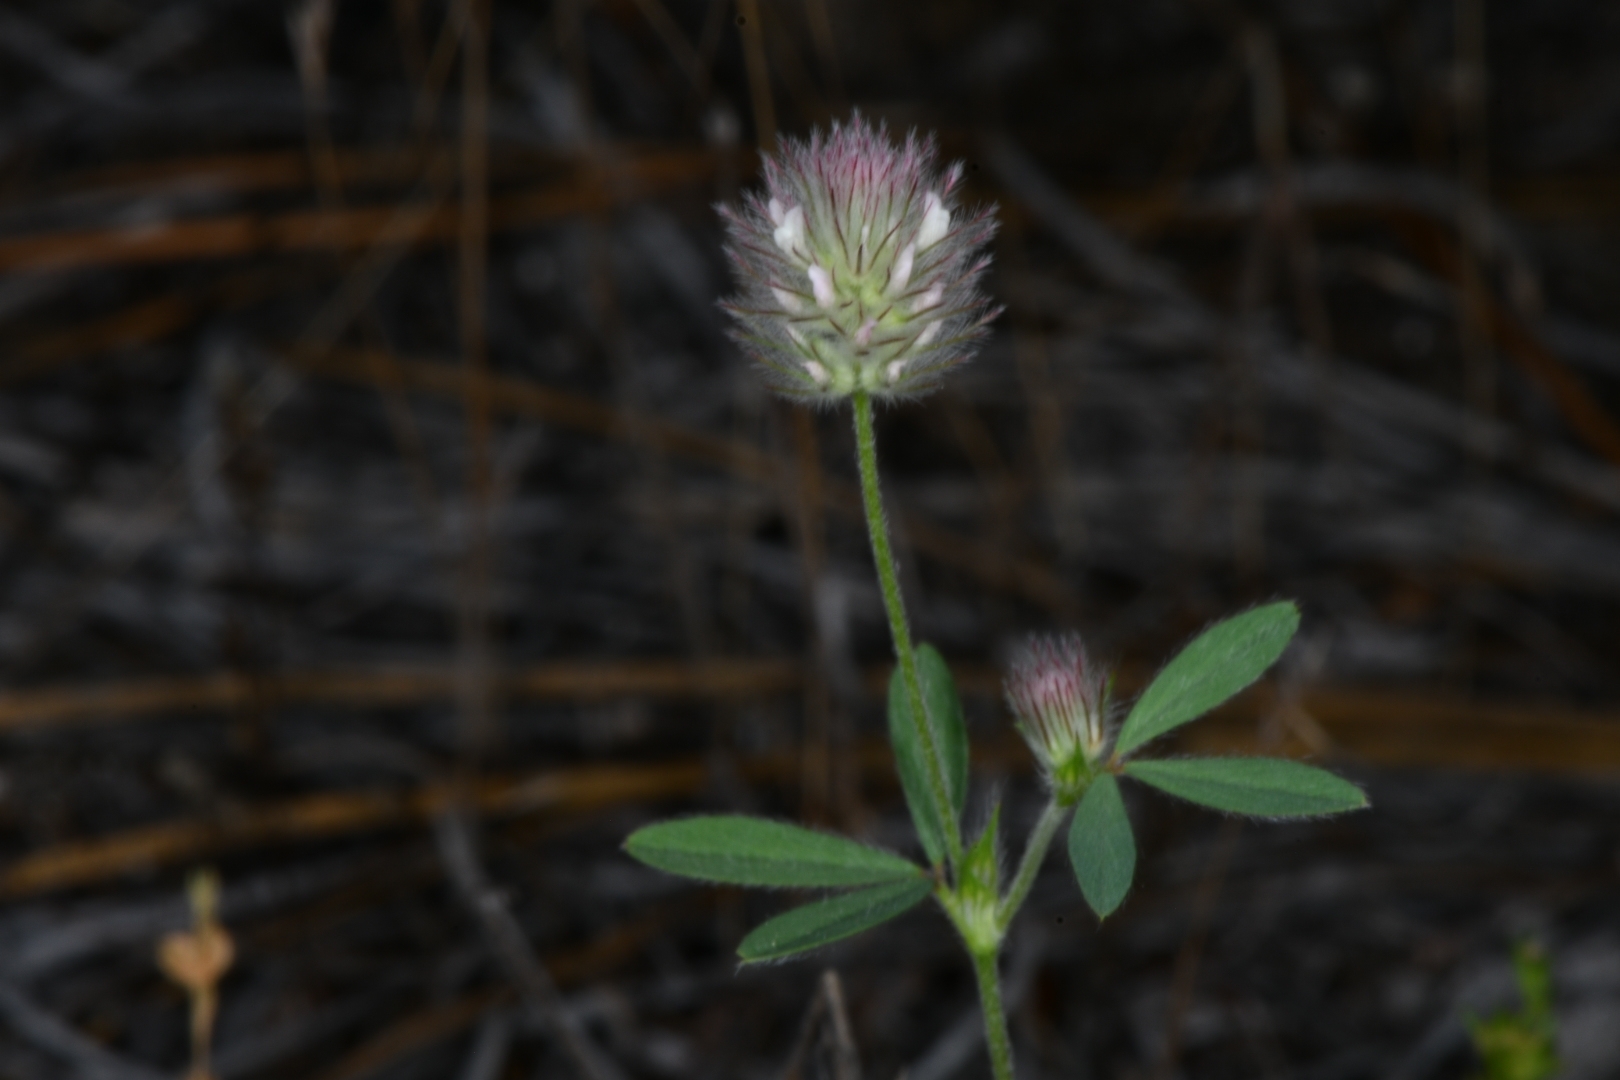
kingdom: Plantae
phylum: Tracheophyta
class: Magnoliopsida
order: Fabales
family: Fabaceae
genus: Trifolium
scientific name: Trifolium arvense
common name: Hare's-foot clover
